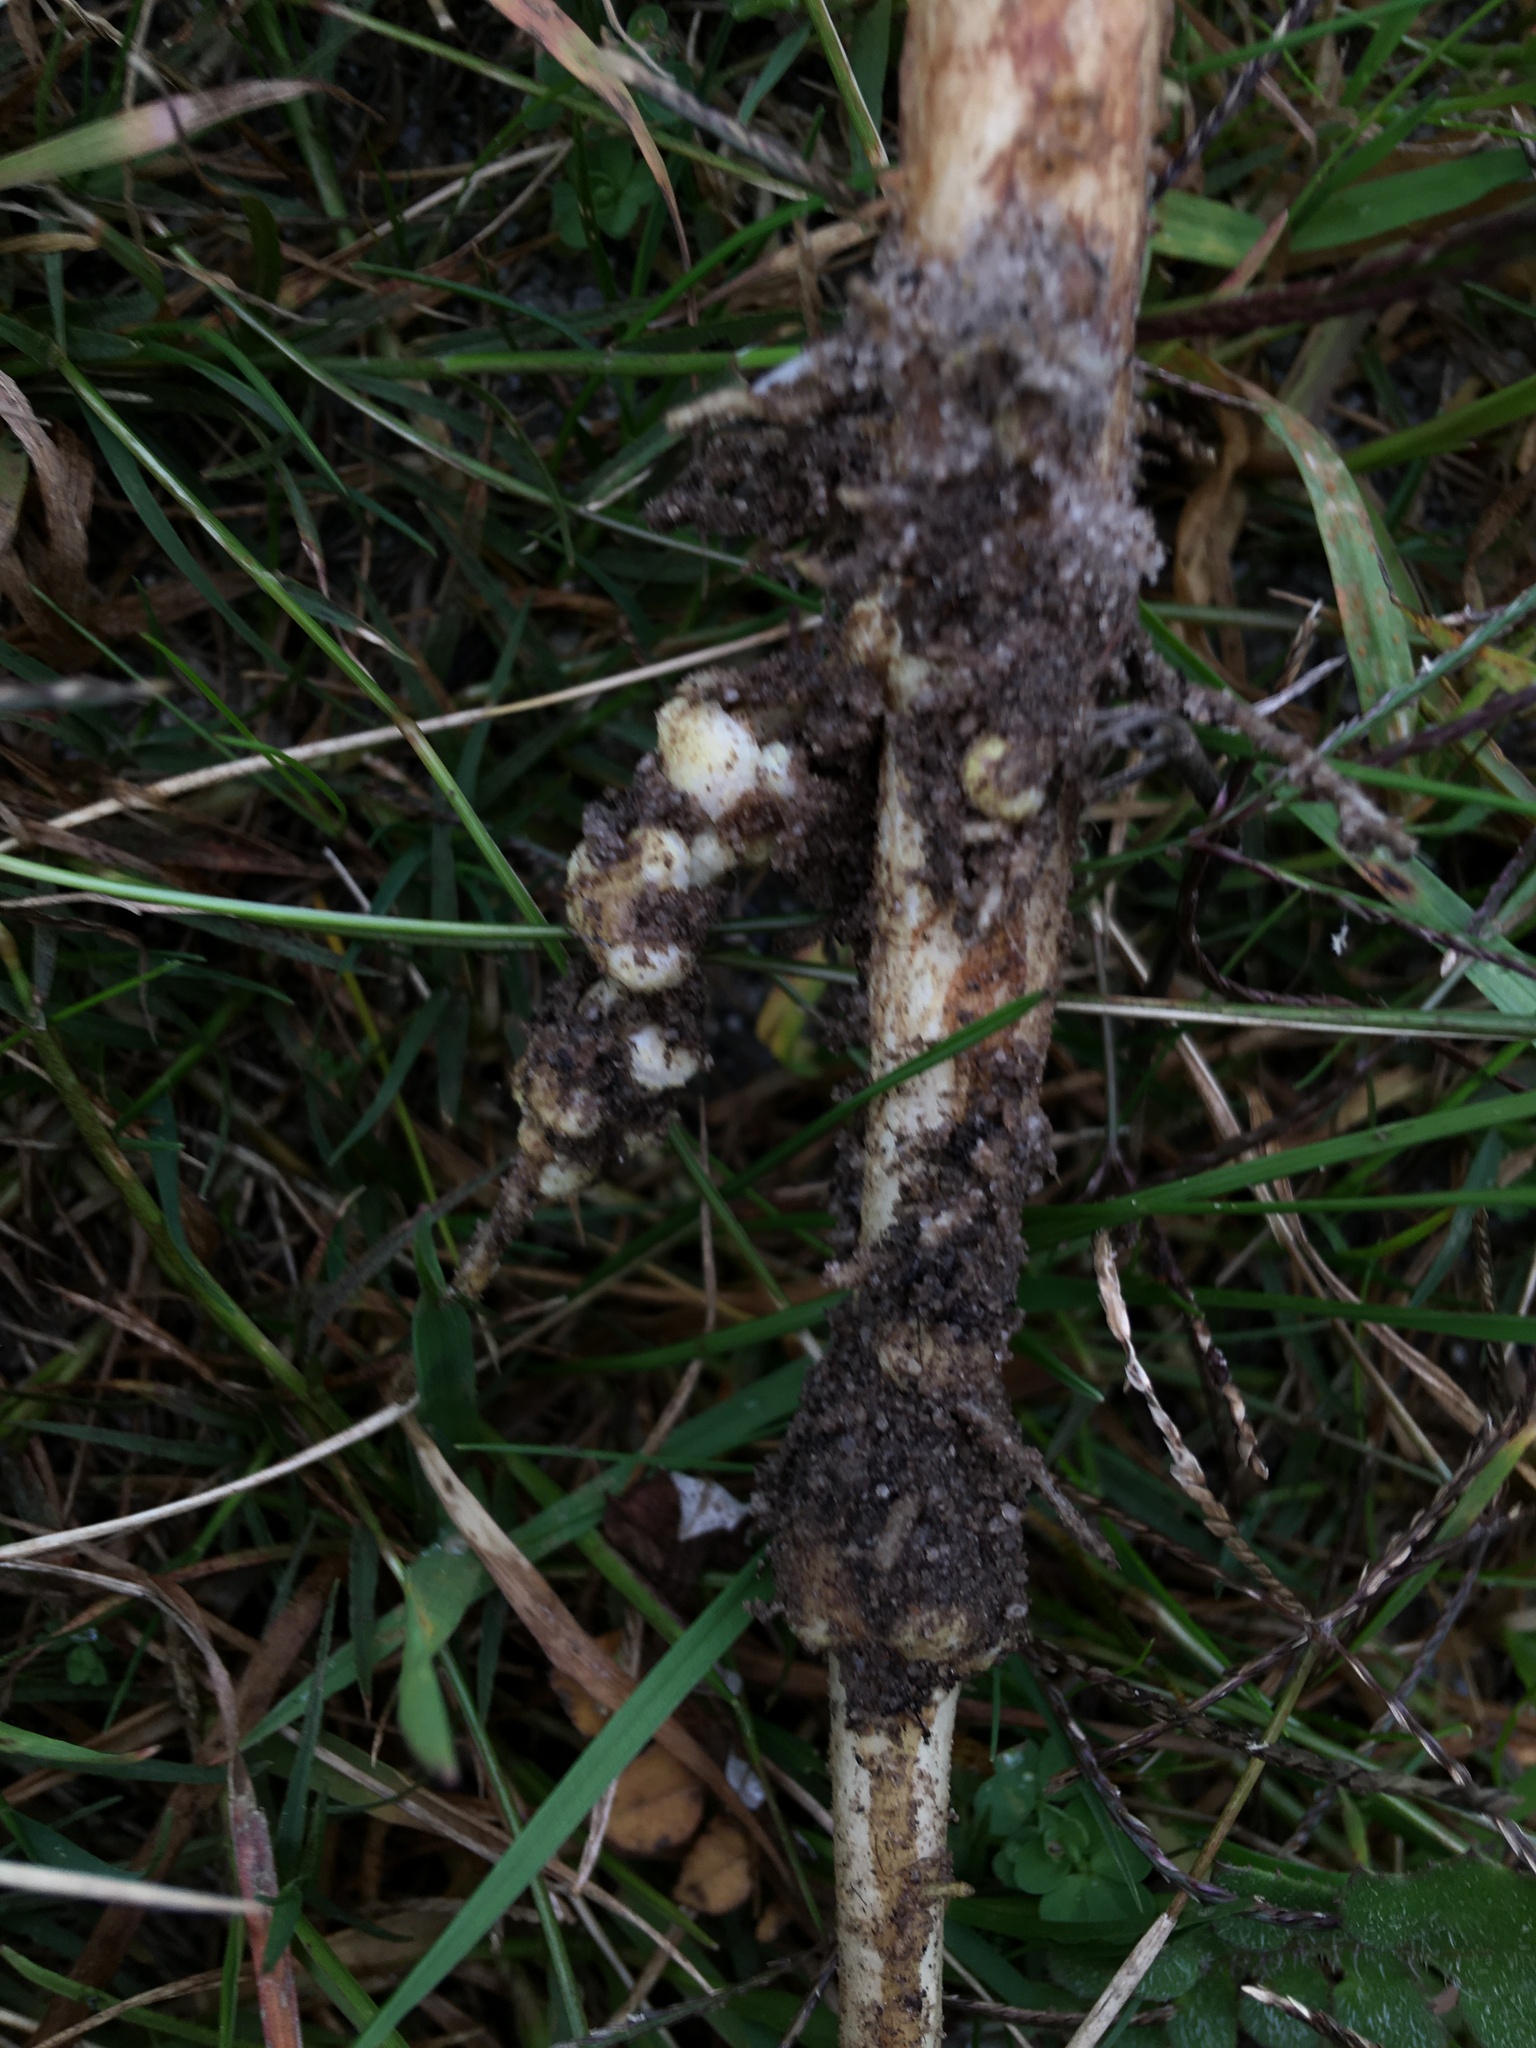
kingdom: Plantae
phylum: Tracheophyta
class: Magnoliopsida
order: Fabales
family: Fabaceae
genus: Lupinus
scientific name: Lupinus angustifolius
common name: Narrow-leaved lupin
